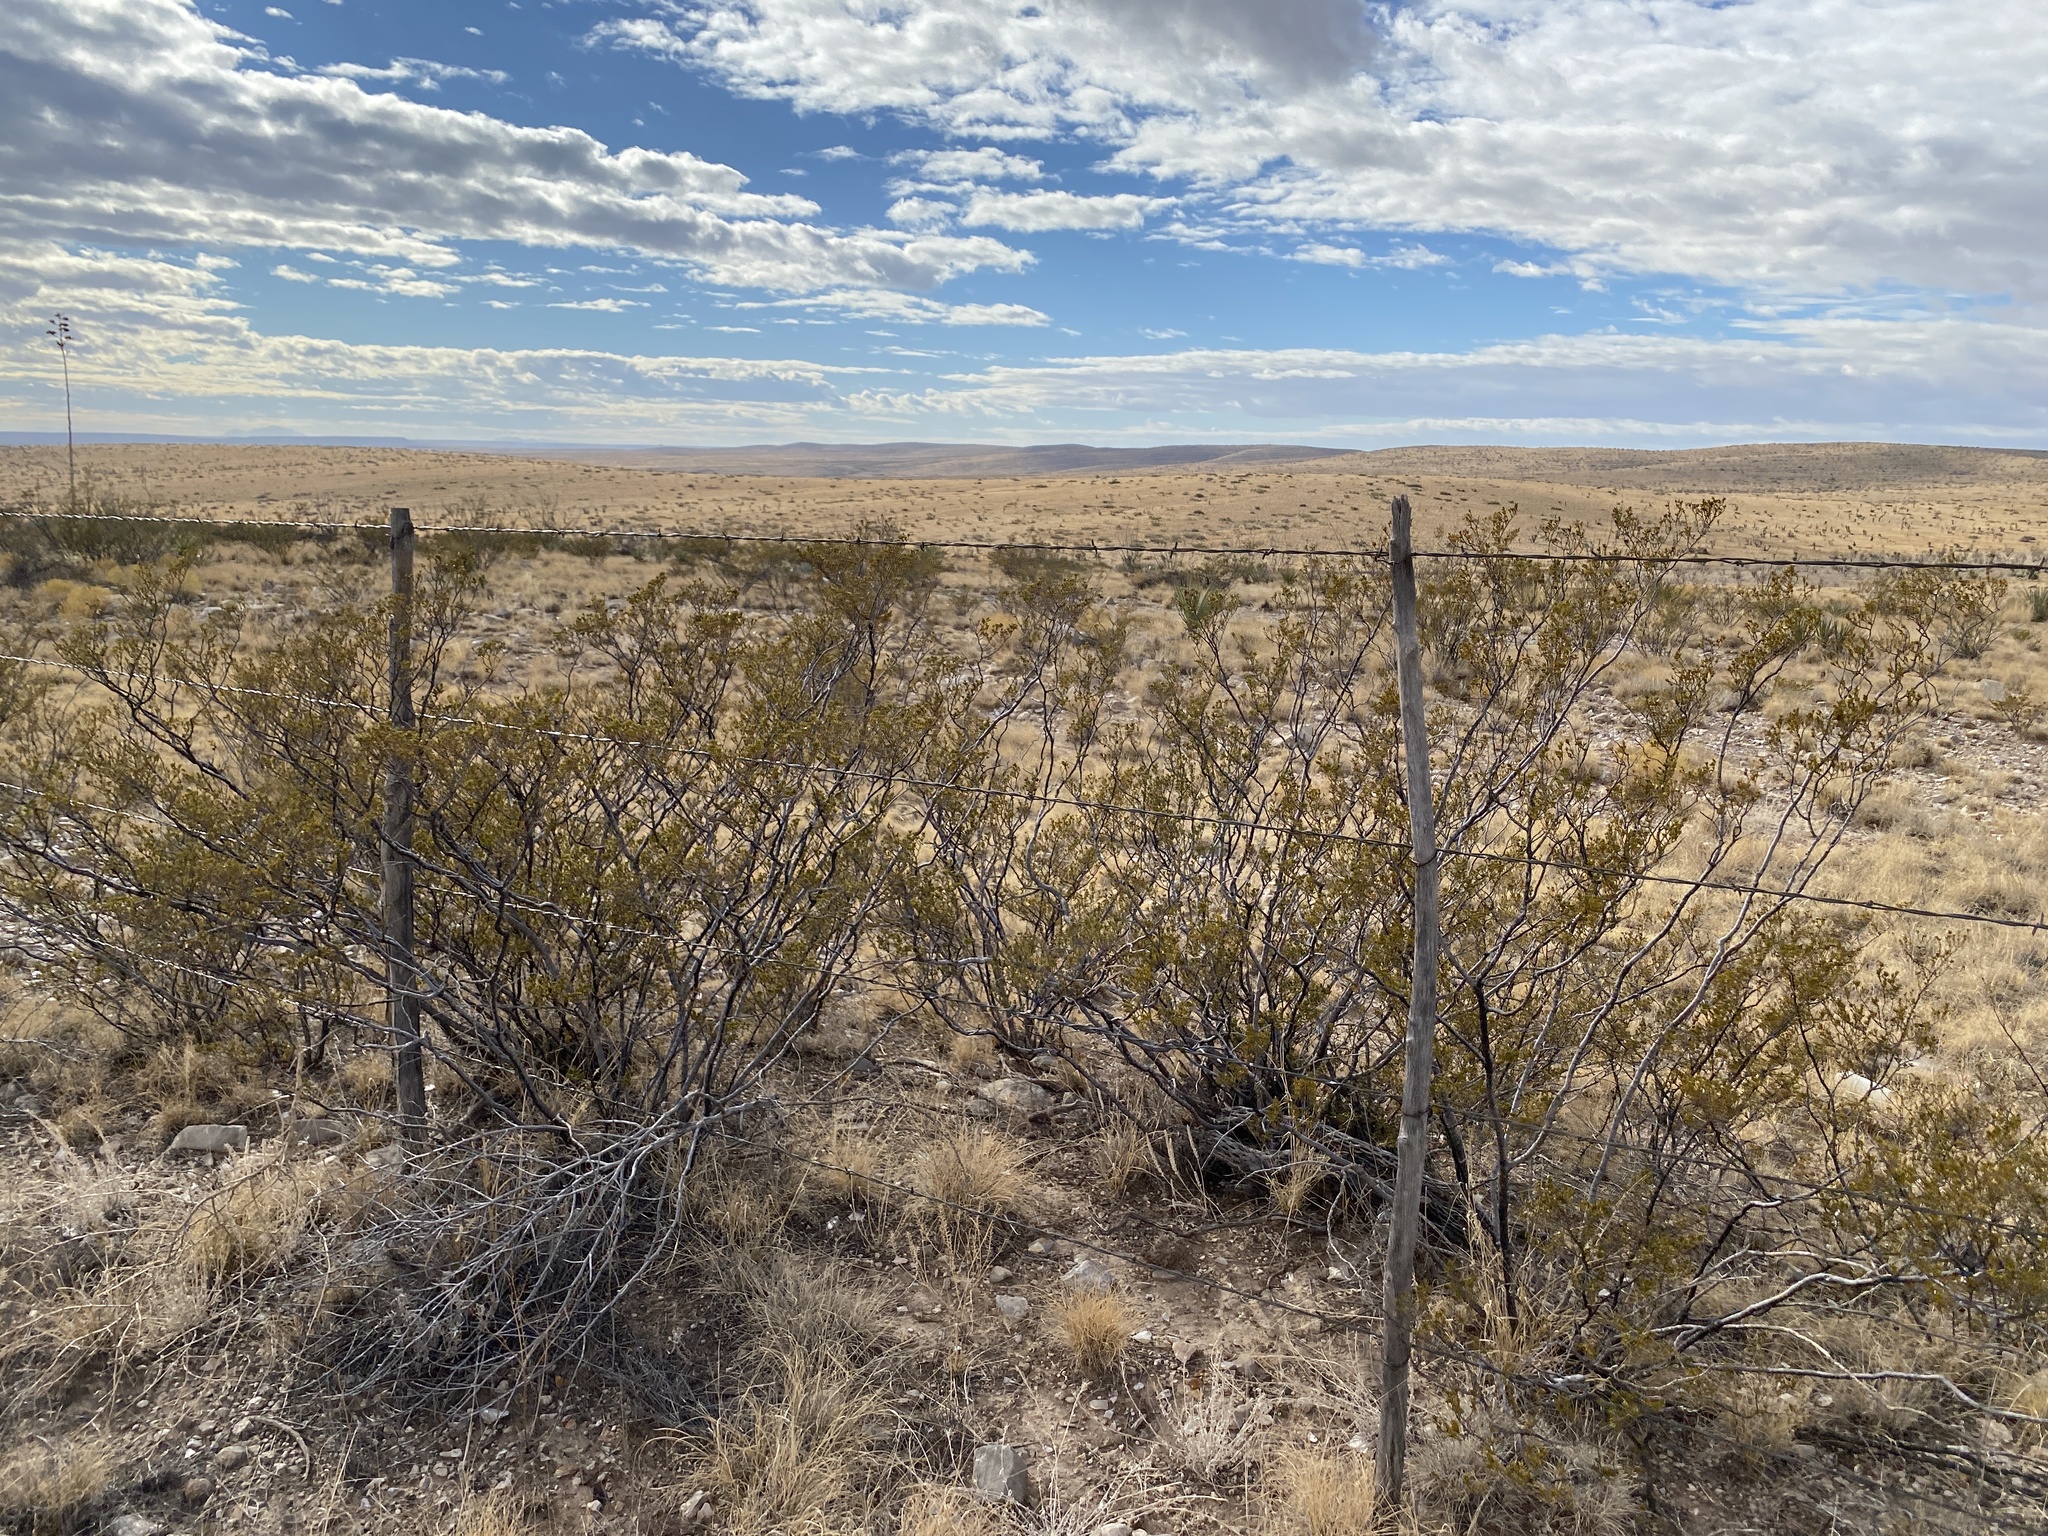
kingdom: Plantae
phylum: Tracheophyta
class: Magnoliopsida
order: Zygophyllales
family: Zygophyllaceae
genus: Larrea
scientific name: Larrea tridentata
